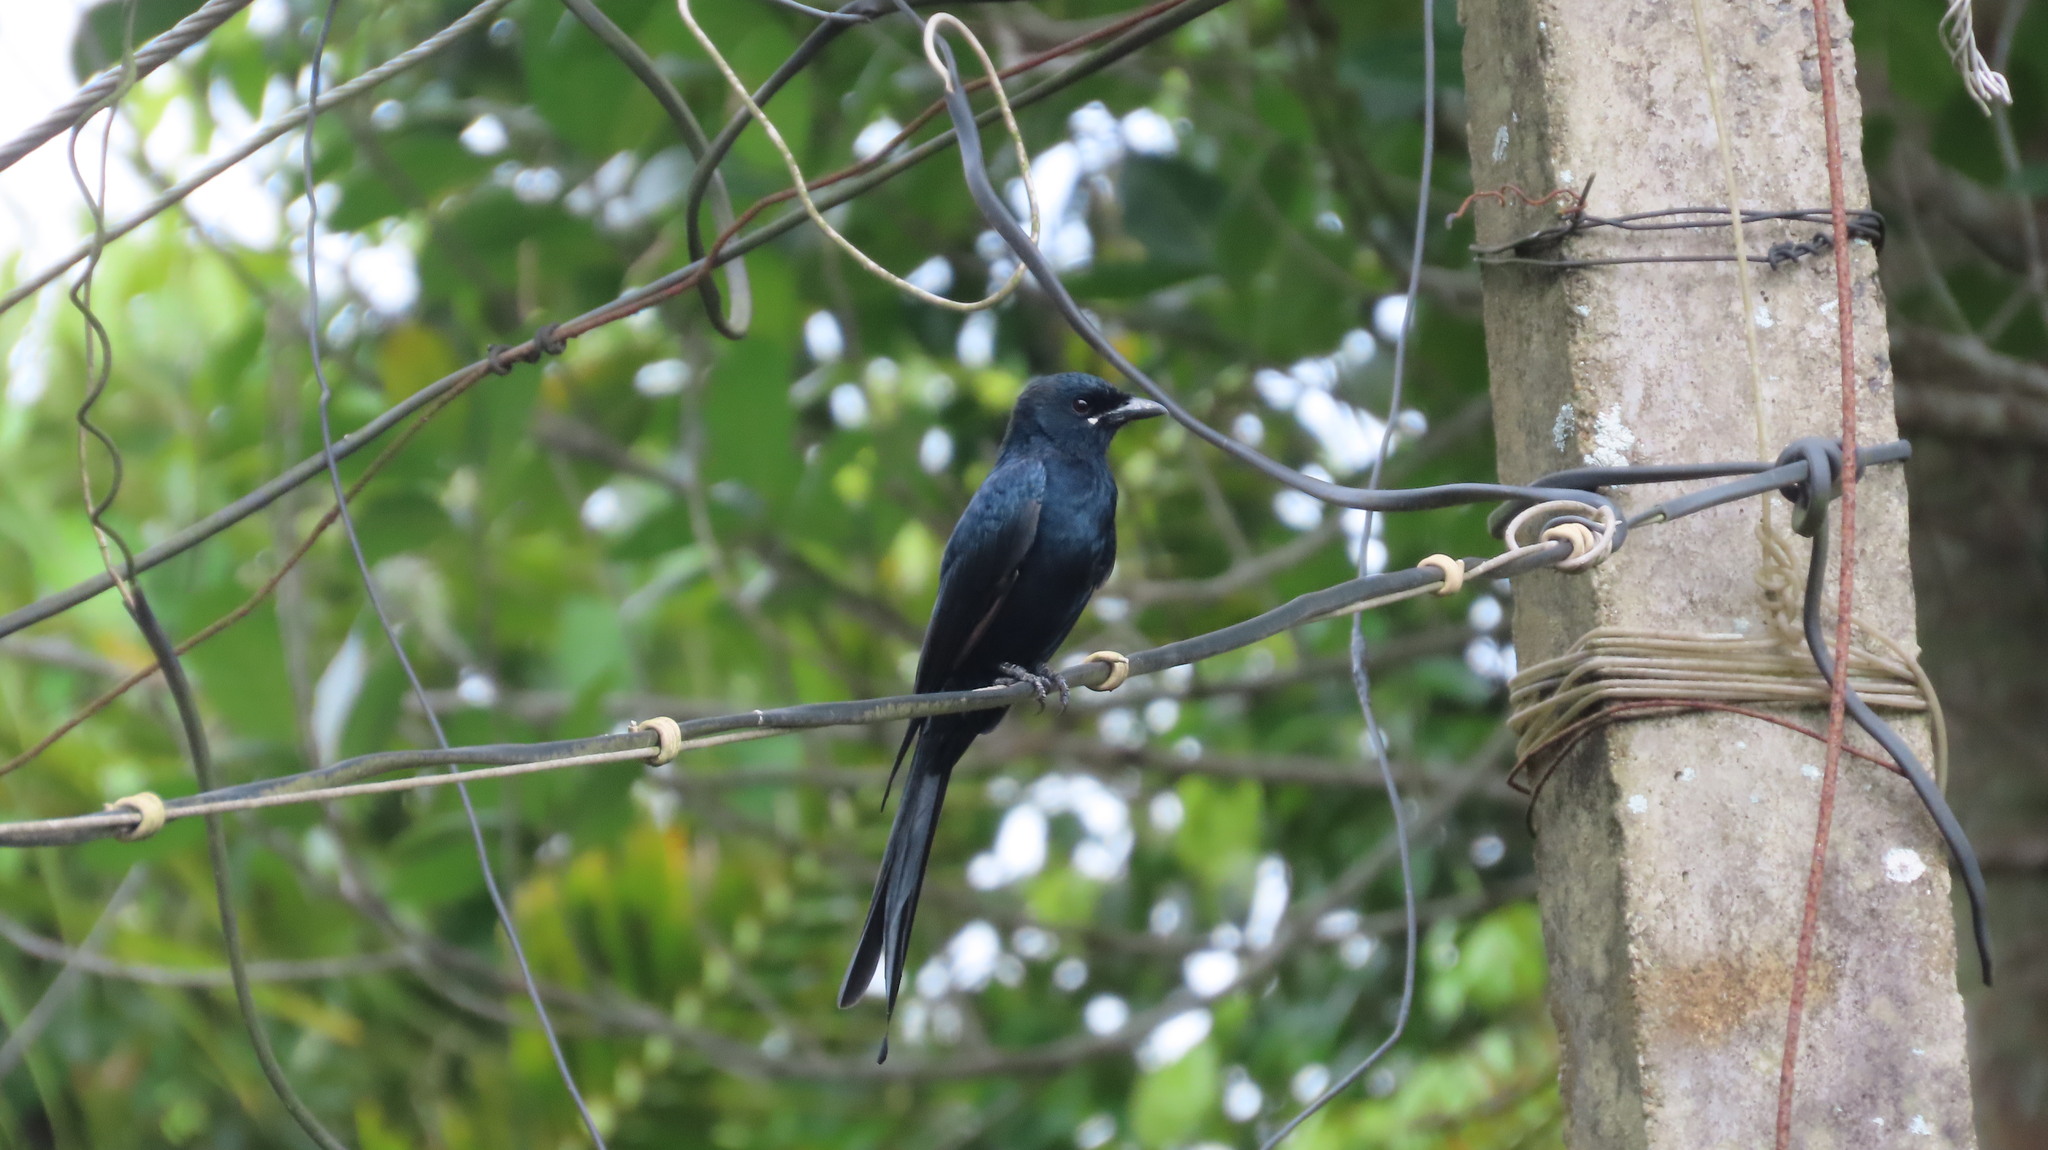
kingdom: Animalia
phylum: Chordata
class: Aves
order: Passeriformes
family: Dicruridae
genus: Dicrurus
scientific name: Dicrurus macrocercus
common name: Black drongo
